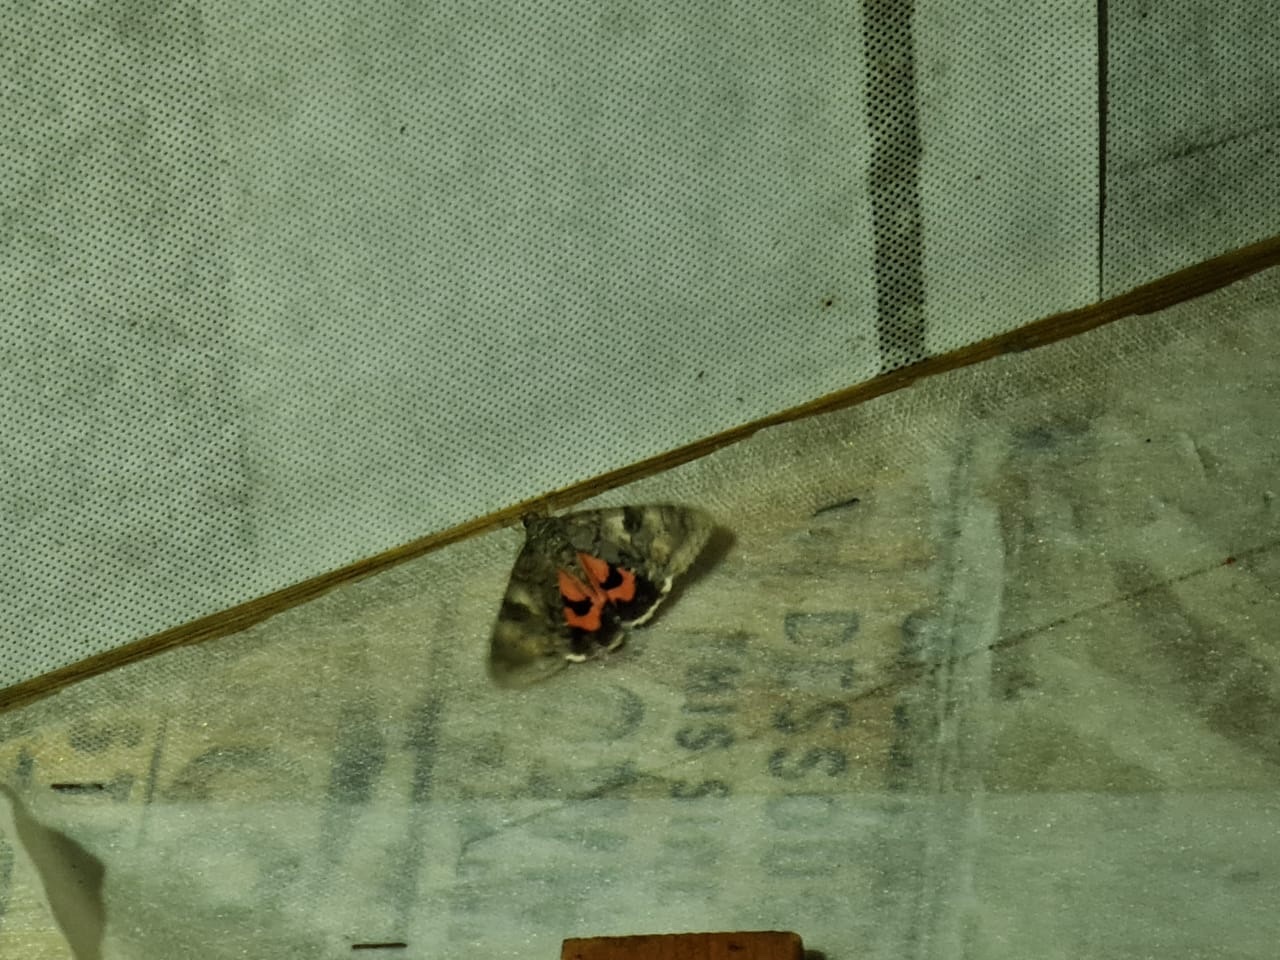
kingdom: Animalia
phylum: Arthropoda
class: Insecta
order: Lepidoptera
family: Erebidae
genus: Catocala
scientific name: Catocala nupta
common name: Red underwing
